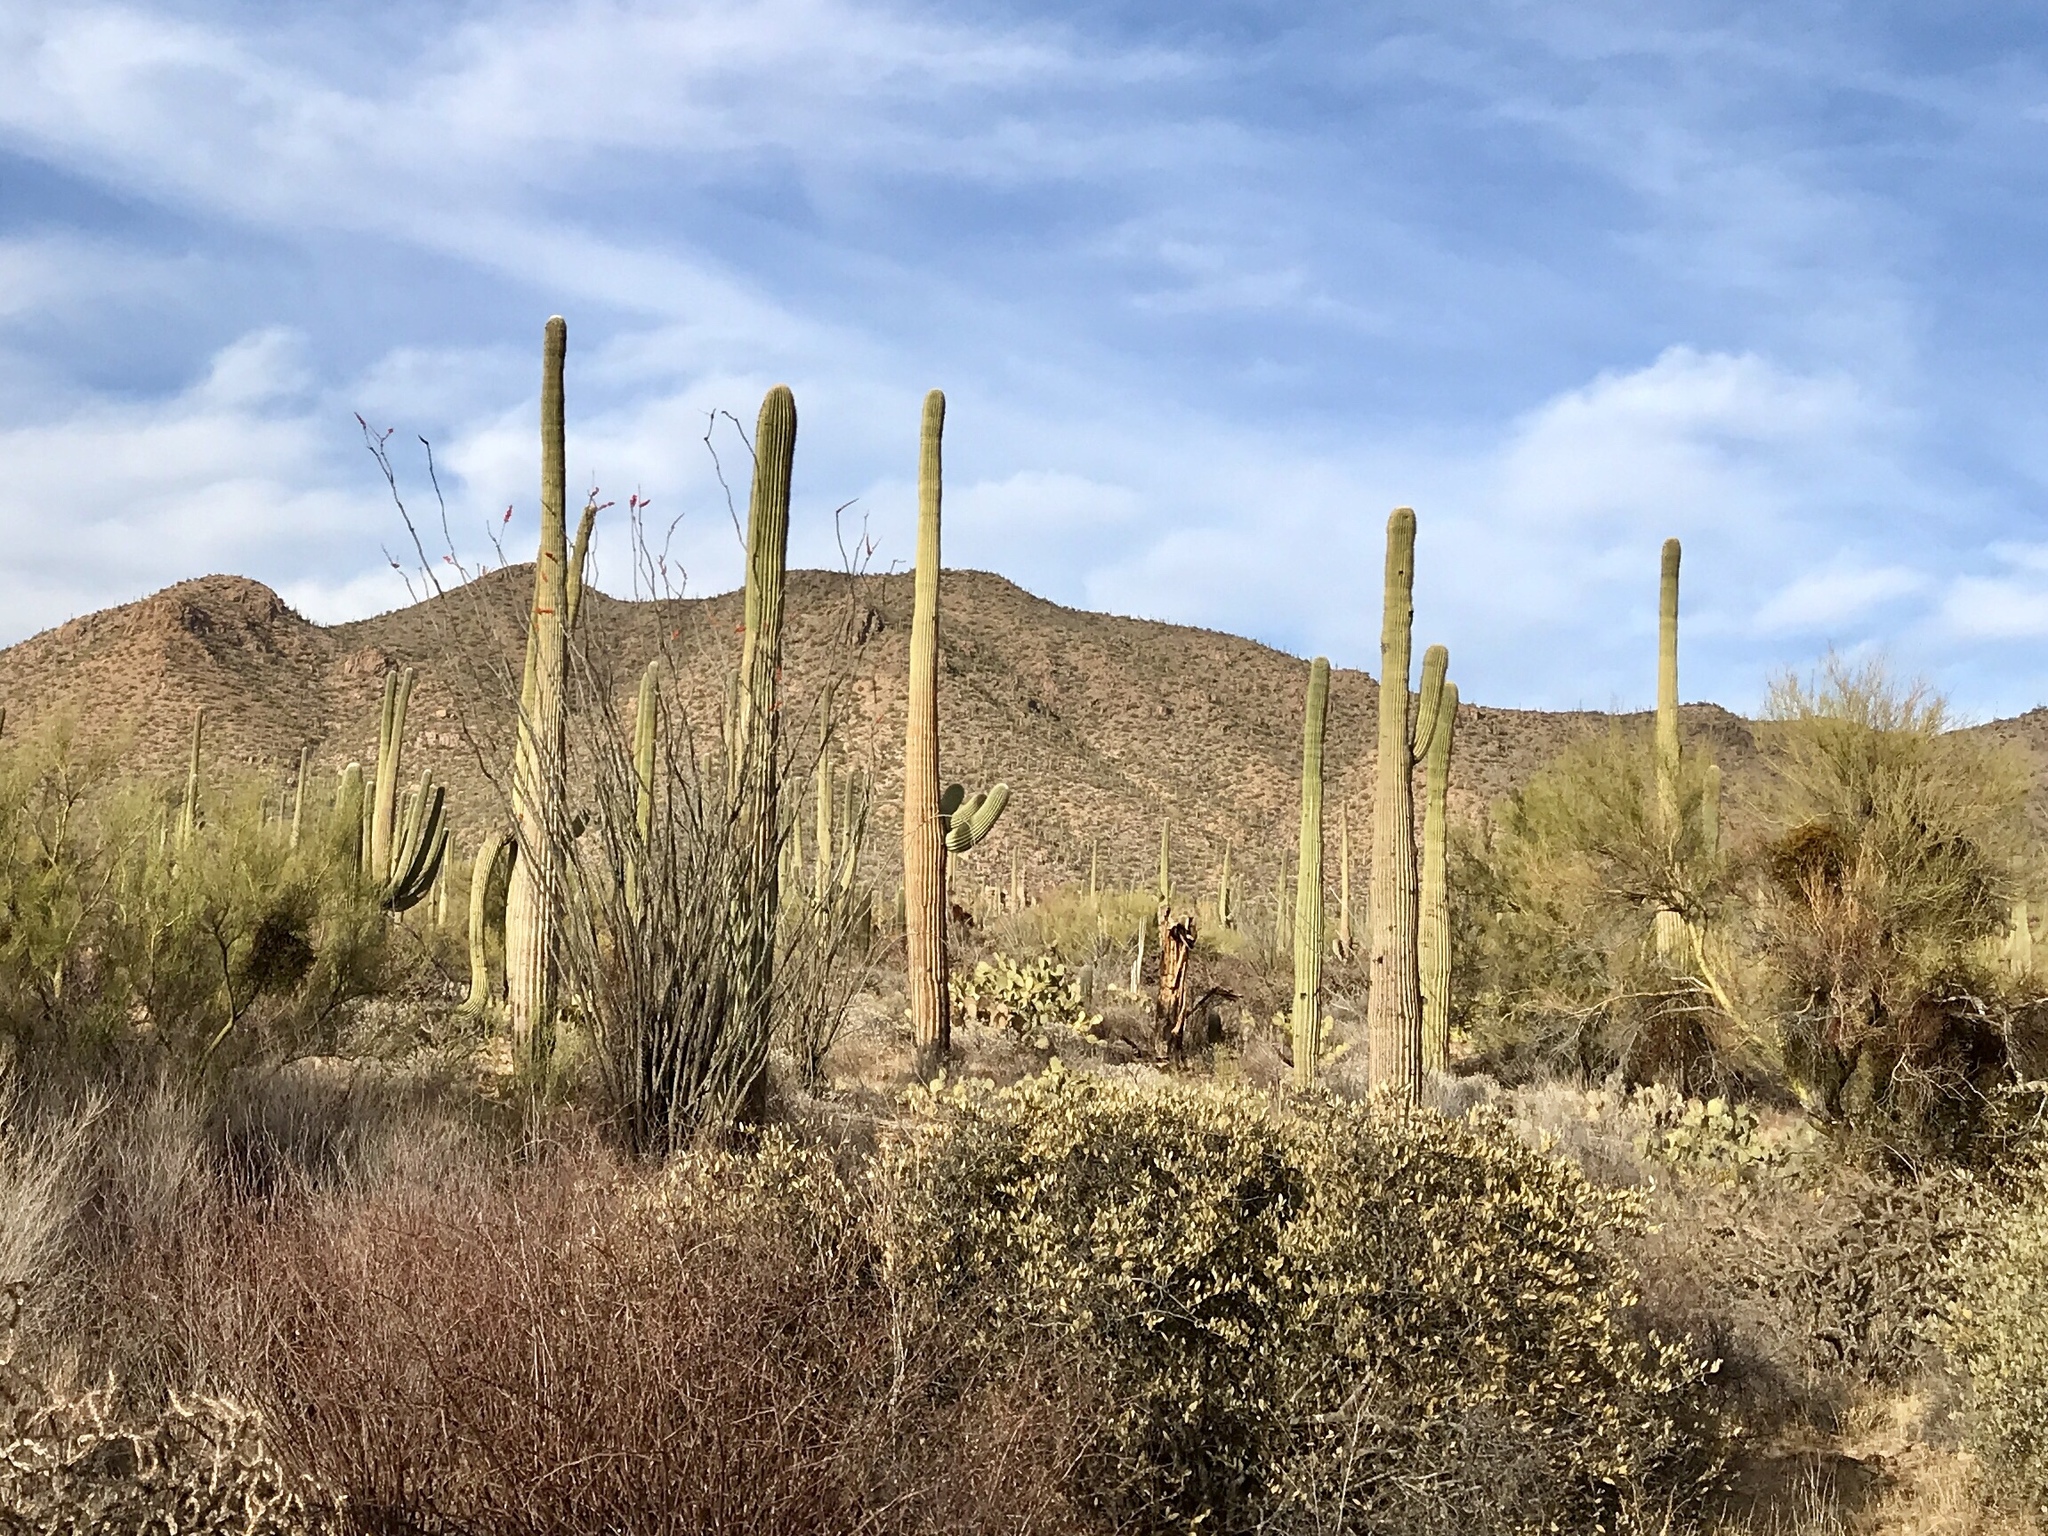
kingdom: Plantae
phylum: Tracheophyta
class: Magnoliopsida
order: Caryophyllales
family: Cactaceae
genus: Carnegiea
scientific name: Carnegiea gigantea
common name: Saguaro
